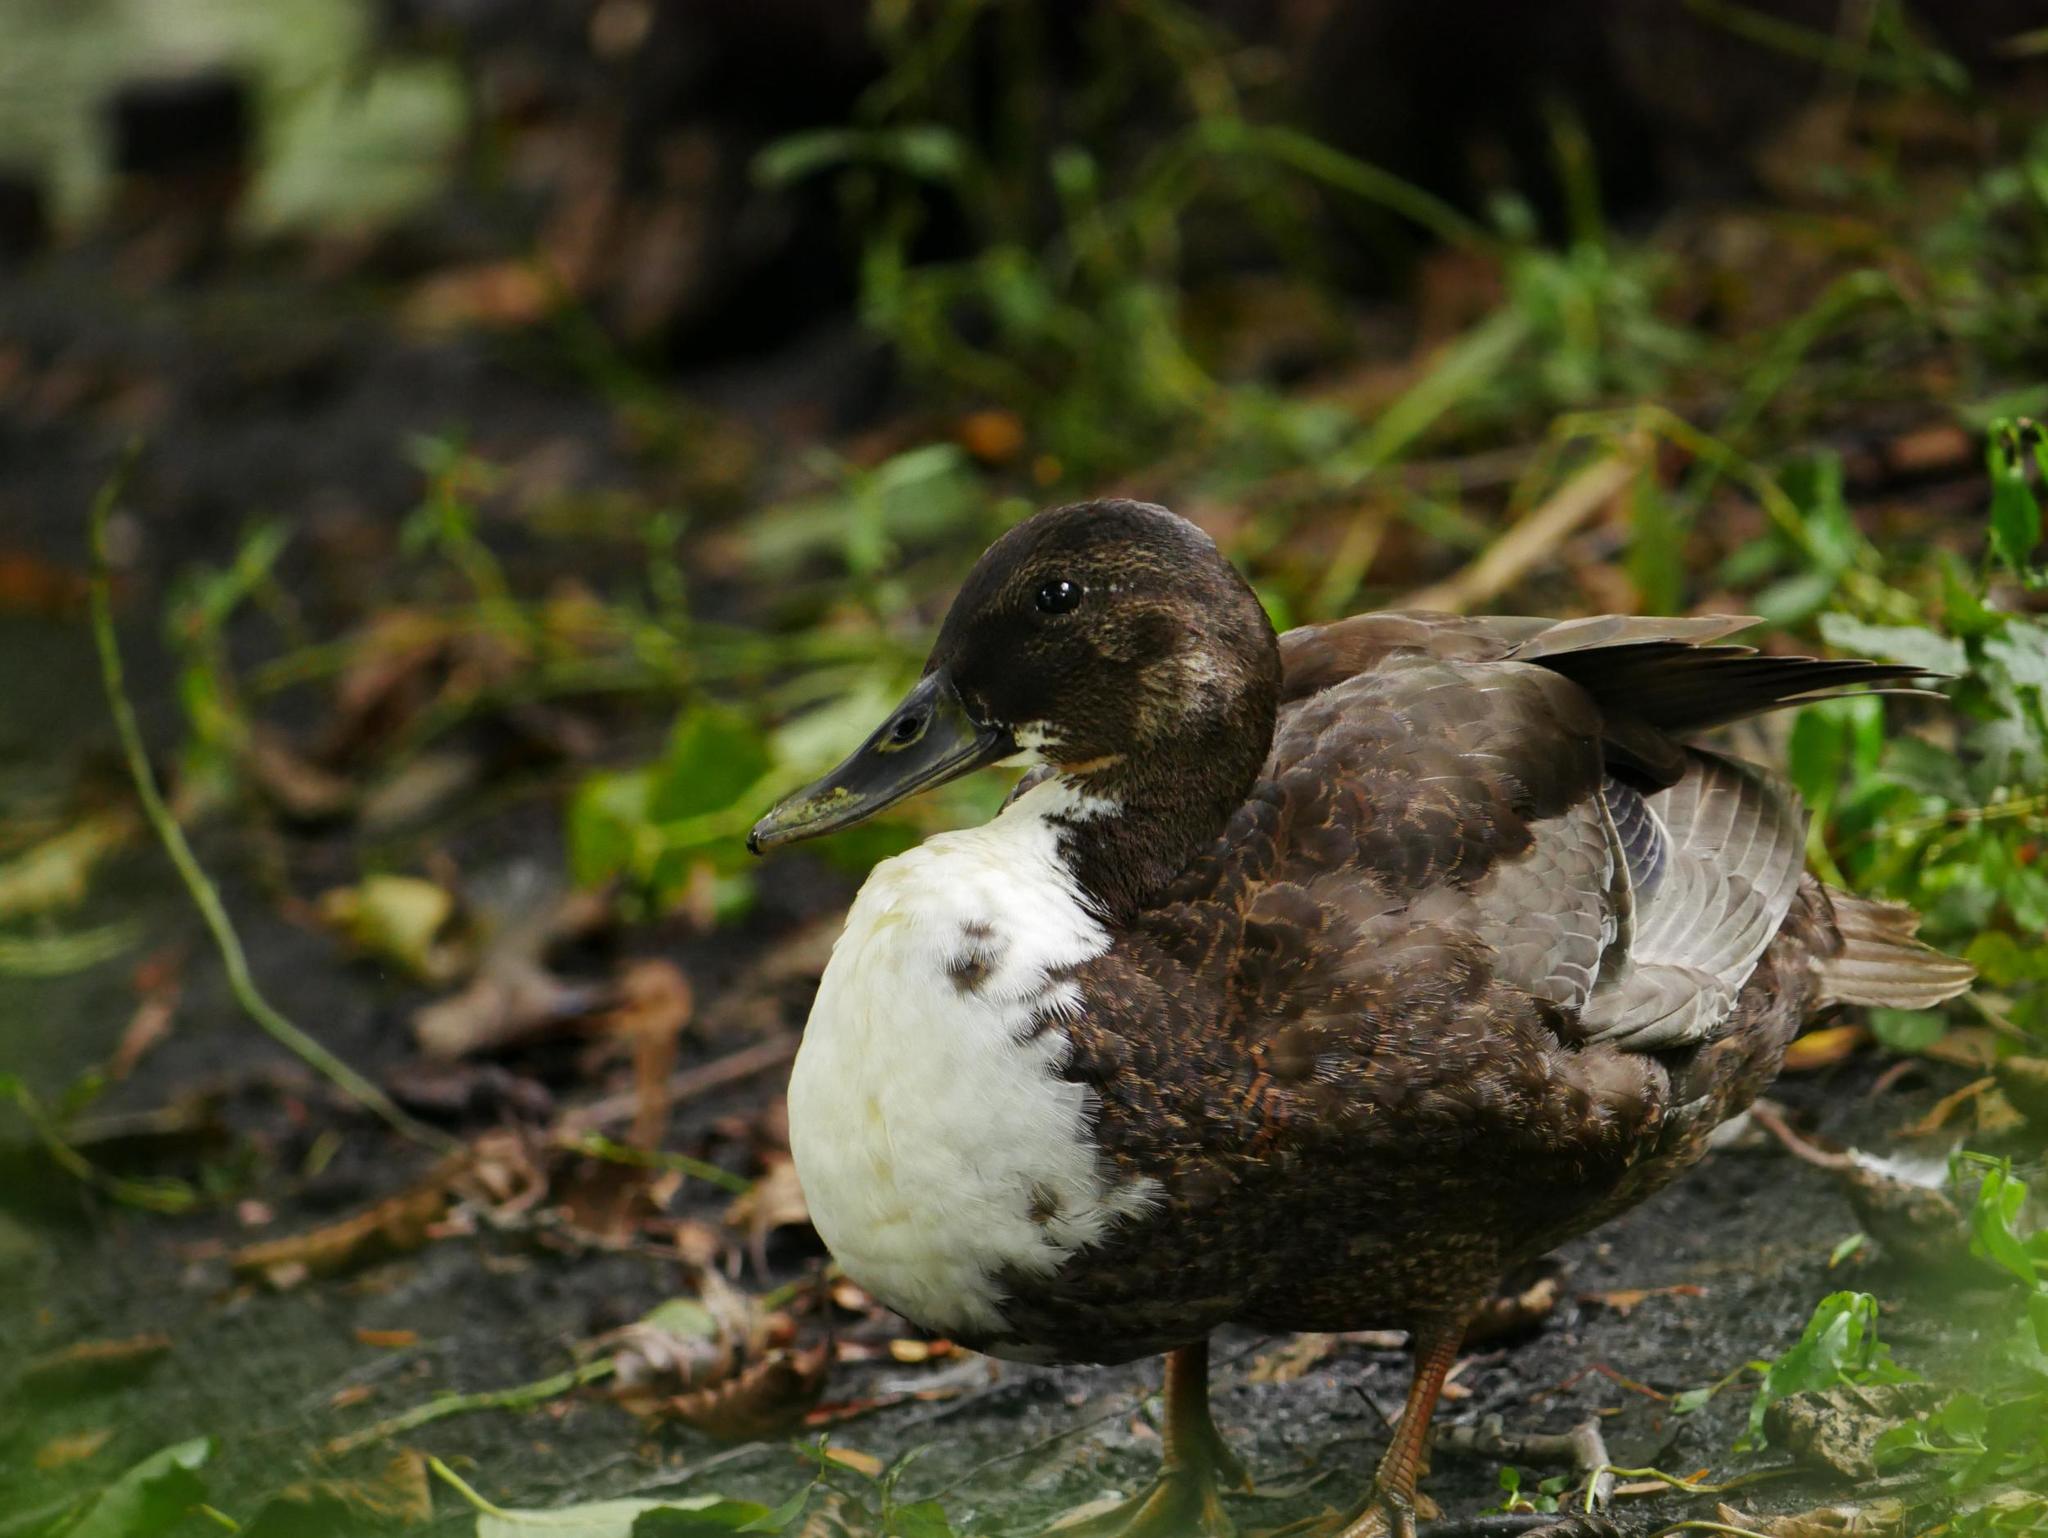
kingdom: Animalia
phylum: Chordata
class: Aves
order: Anseriformes
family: Anatidae
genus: Anas
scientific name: Anas platyrhynchos
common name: Mallard
